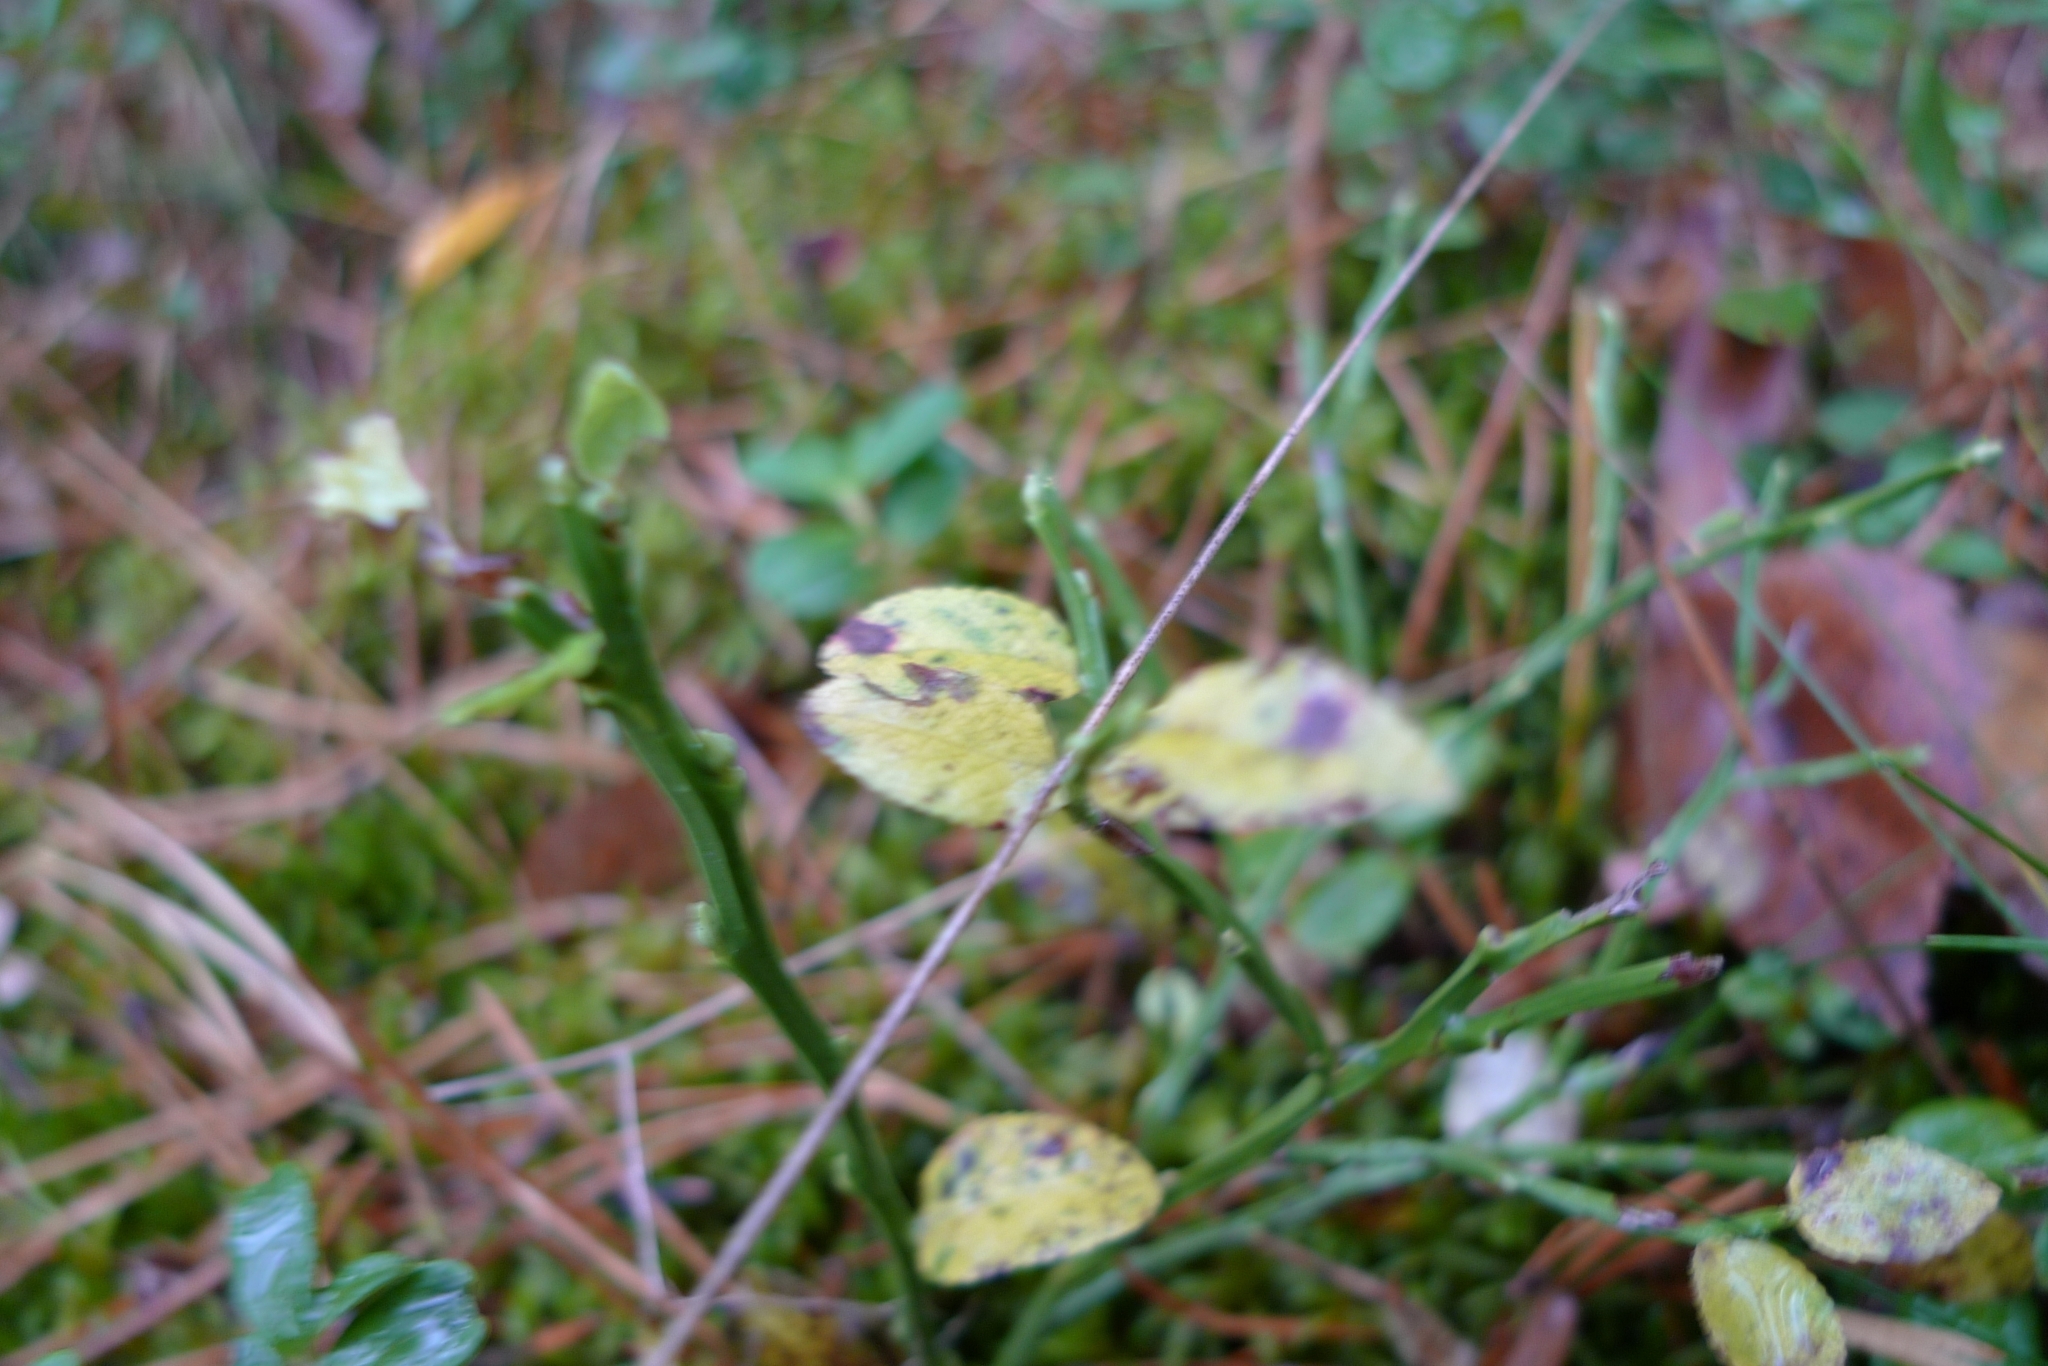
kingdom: Plantae
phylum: Tracheophyta
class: Magnoliopsida
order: Ericales
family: Ericaceae
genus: Vaccinium
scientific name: Vaccinium myrtillus
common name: Bilberry
